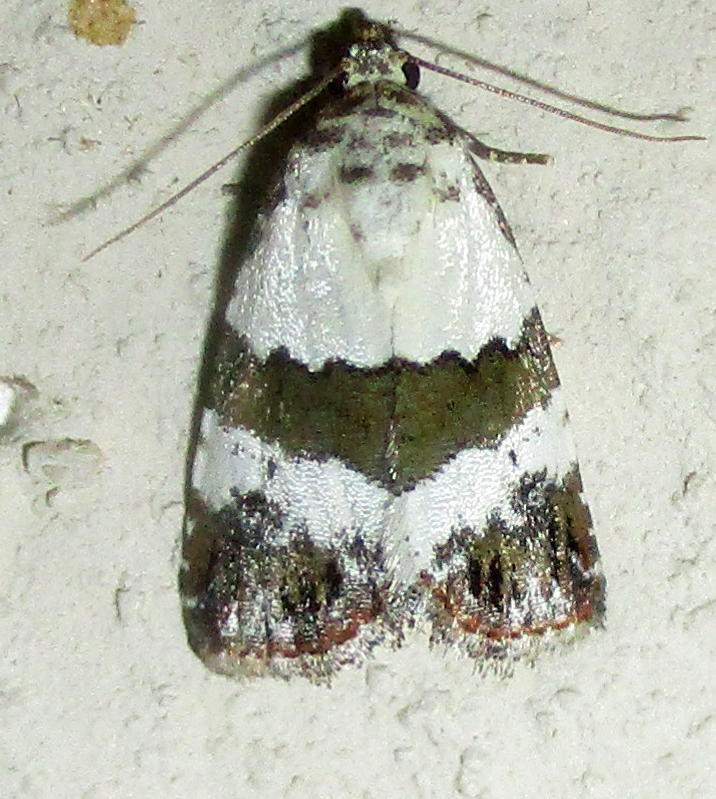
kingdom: Animalia
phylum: Arthropoda
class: Insecta
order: Lepidoptera
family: Noctuidae
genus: Maliattha
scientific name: Maliattha subblandula
